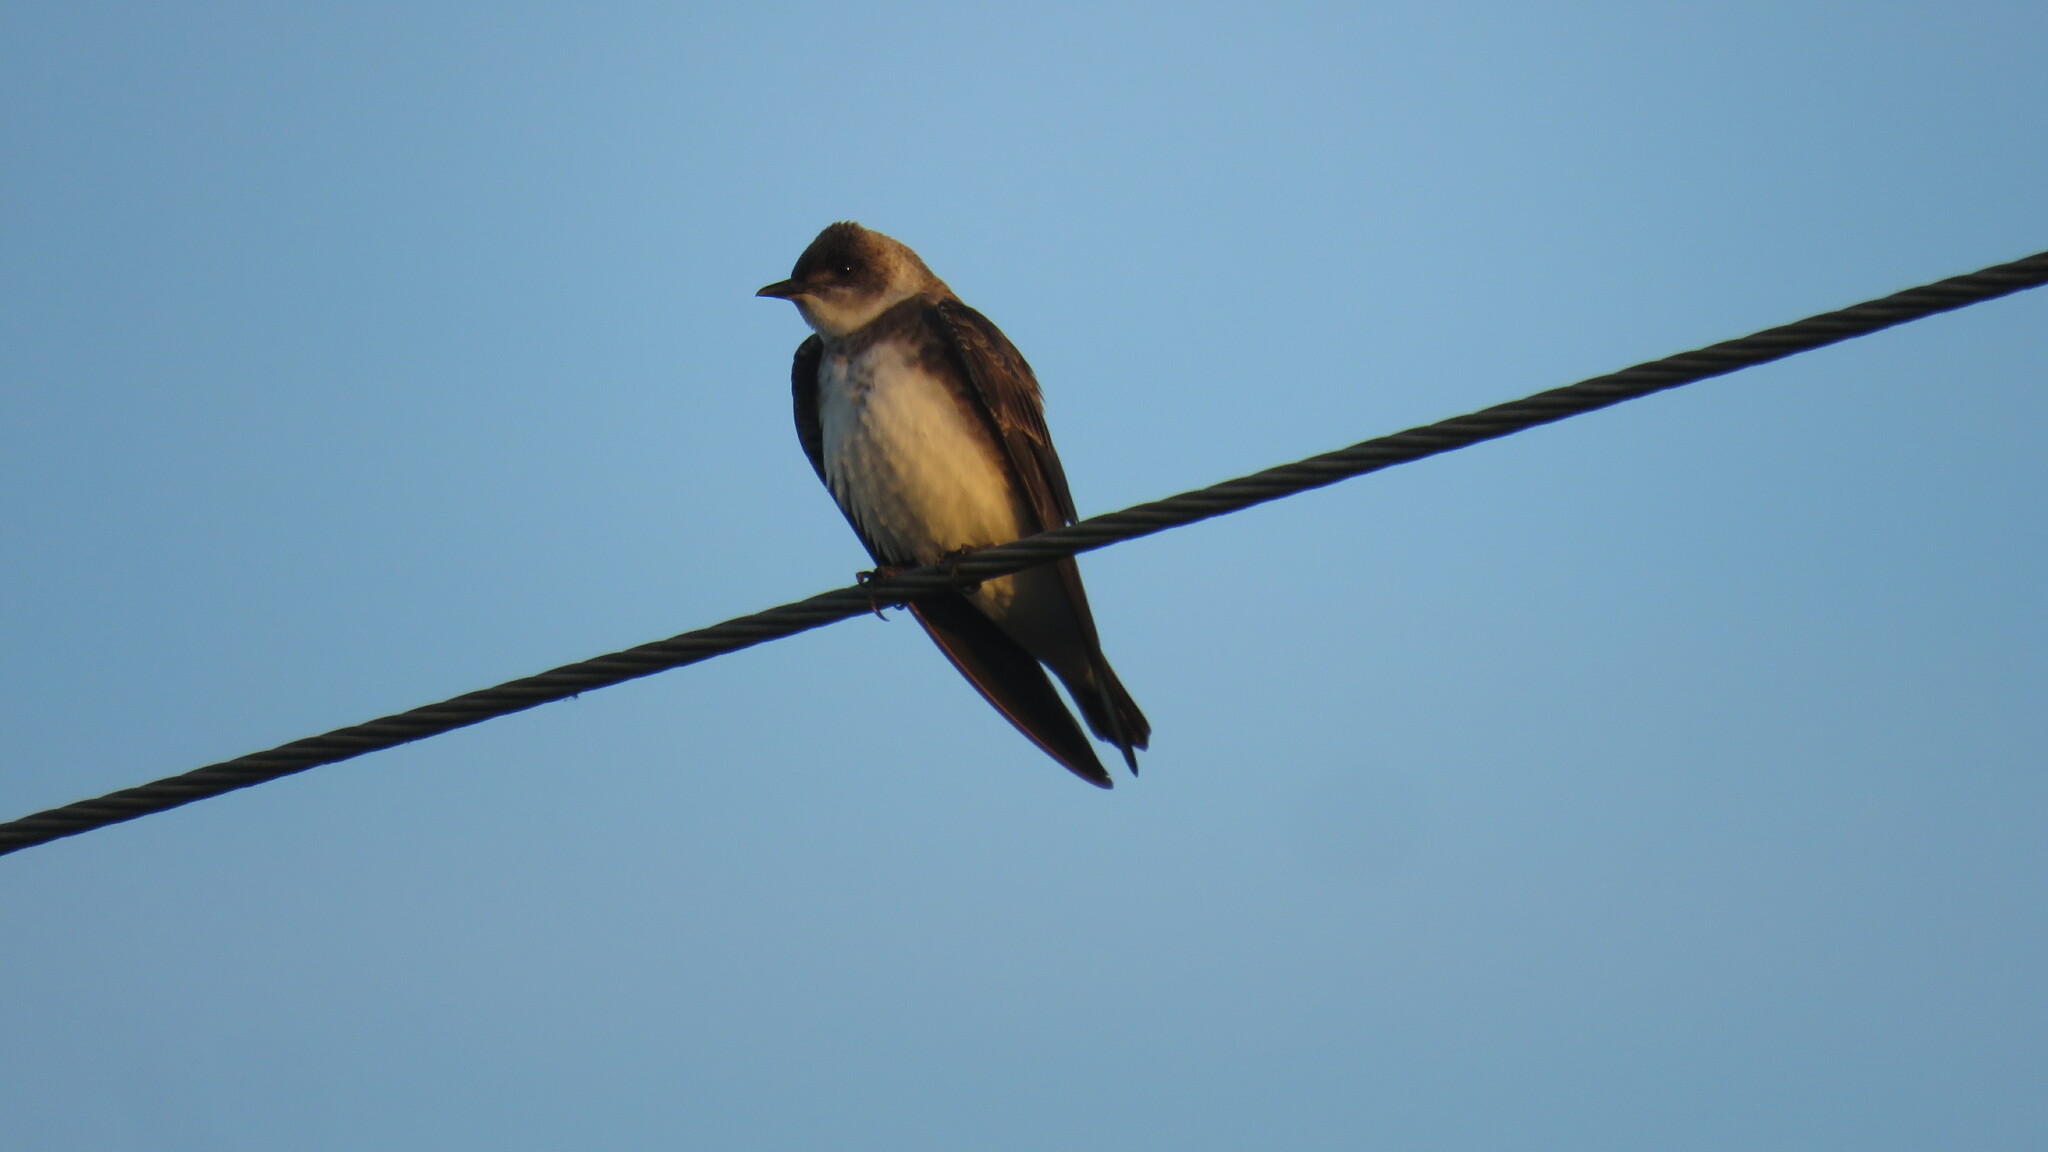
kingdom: Animalia
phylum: Chordata
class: Aves
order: Passeriformes
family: Hirundinidae
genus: Progne
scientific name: Progne tapera
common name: Brown-chested martin
